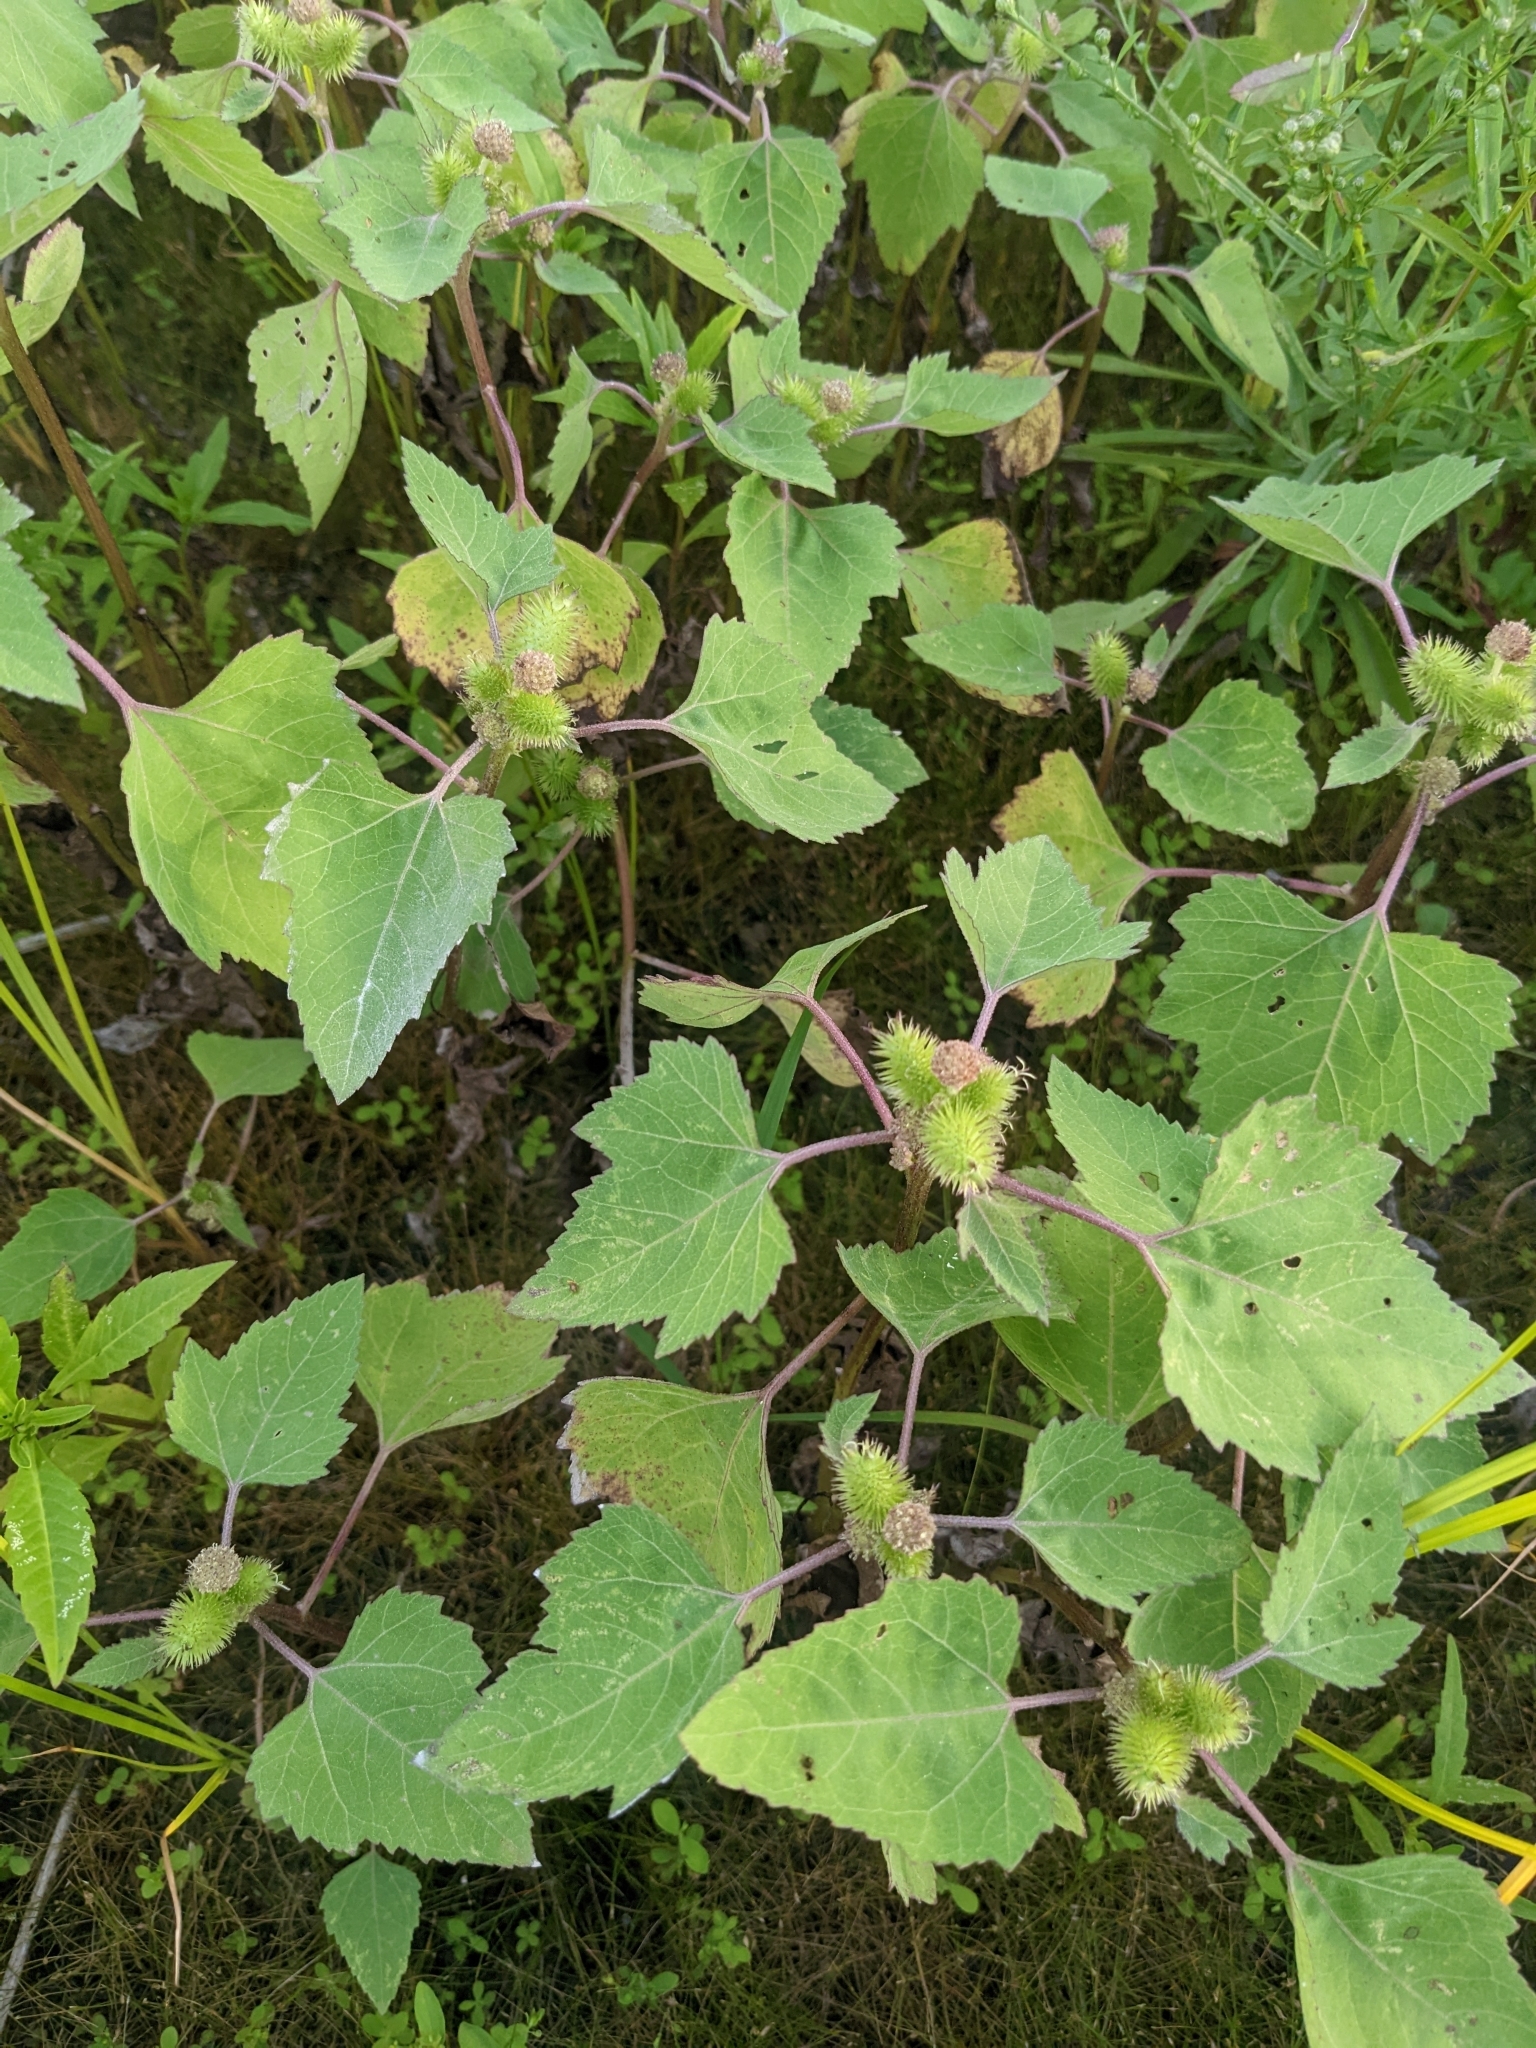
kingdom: Plantae
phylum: Tracheophyta
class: Magnoliopsida
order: Asterales
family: Asteraceae
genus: Xanthium
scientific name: Xanthium strumarium
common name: Rough cocklebur
